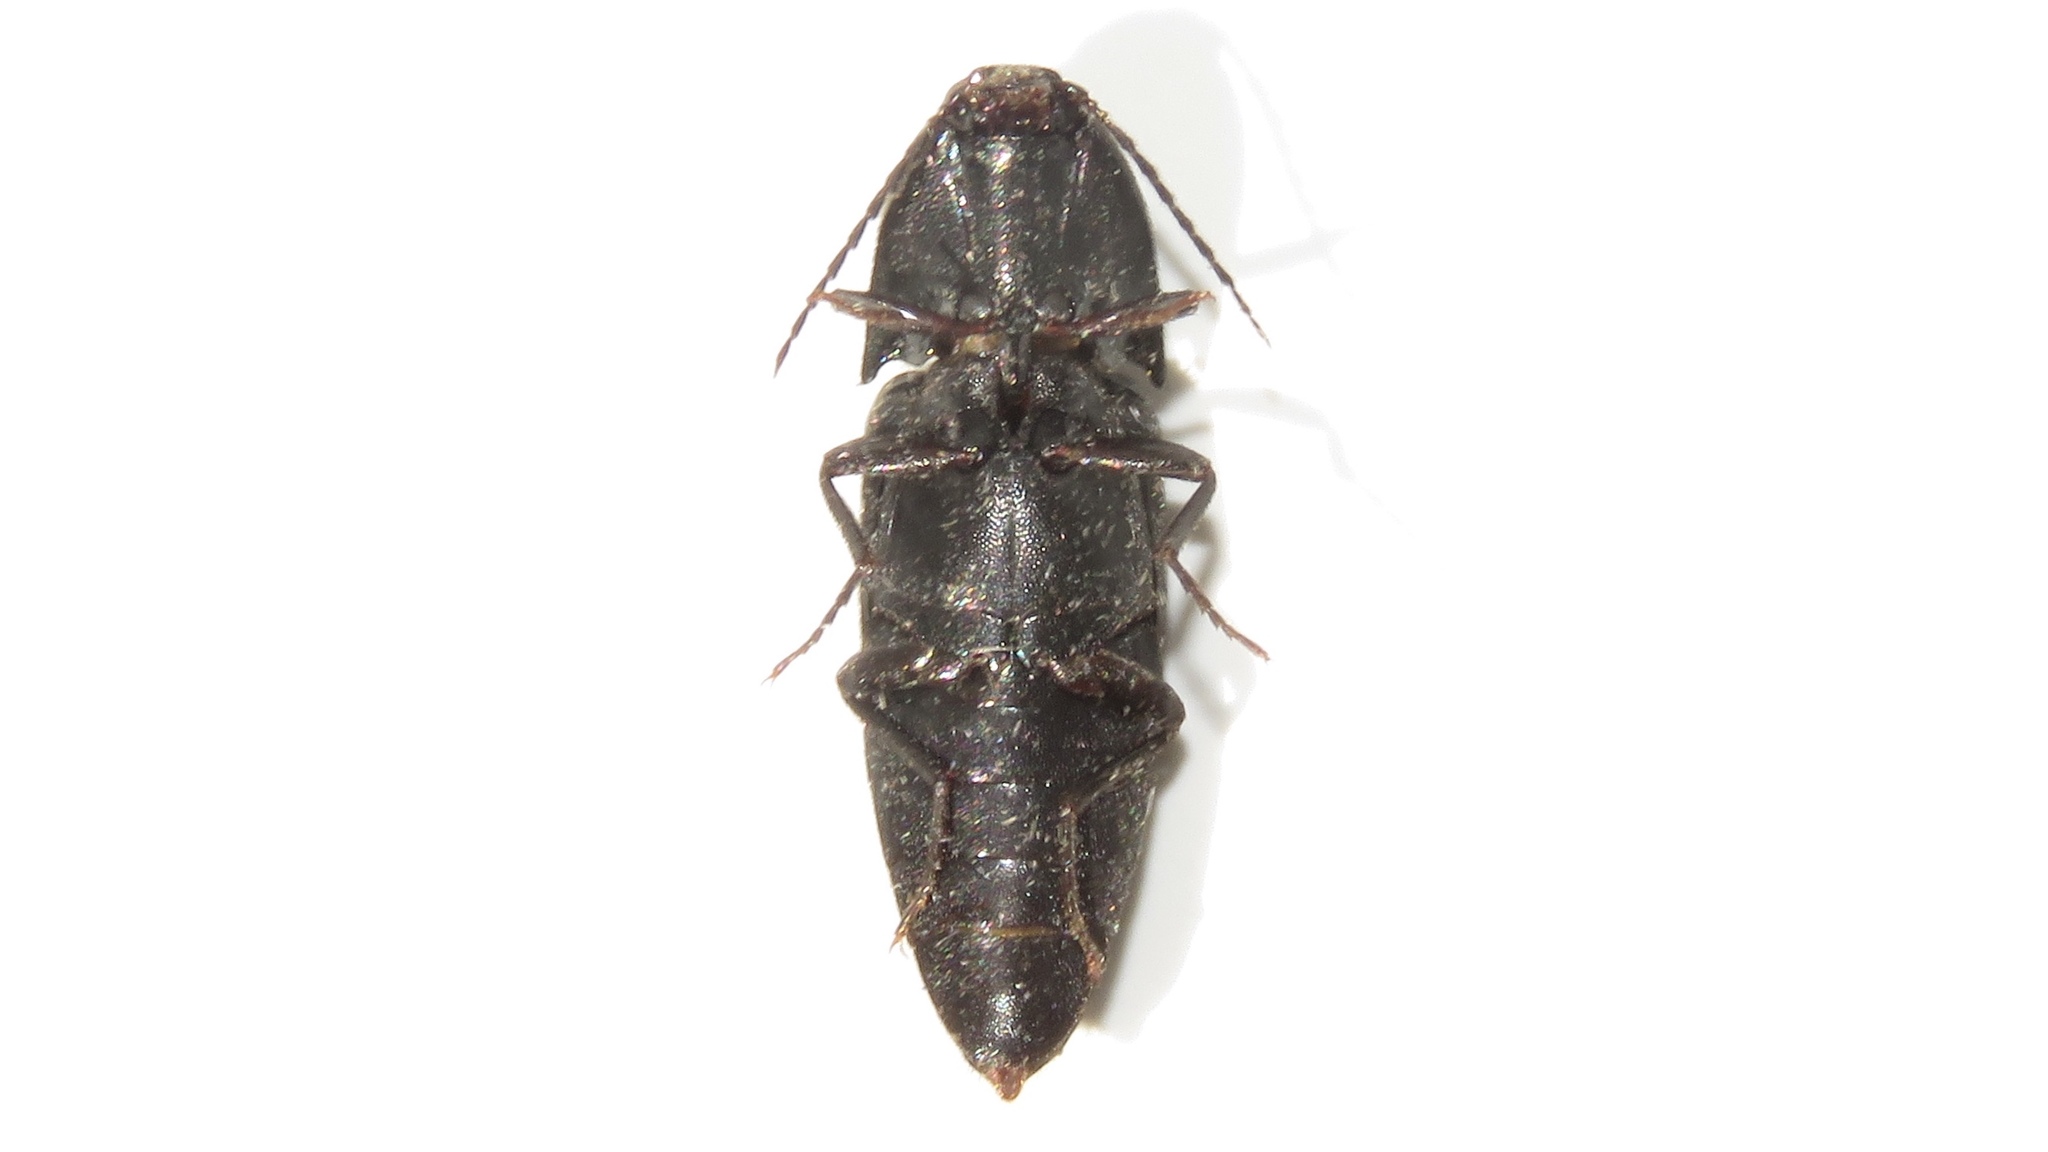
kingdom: Animalia
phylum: Arthropoda
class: Insecta
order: Coleoptera
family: Elateridae
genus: Elater
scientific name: Elater abruptus
